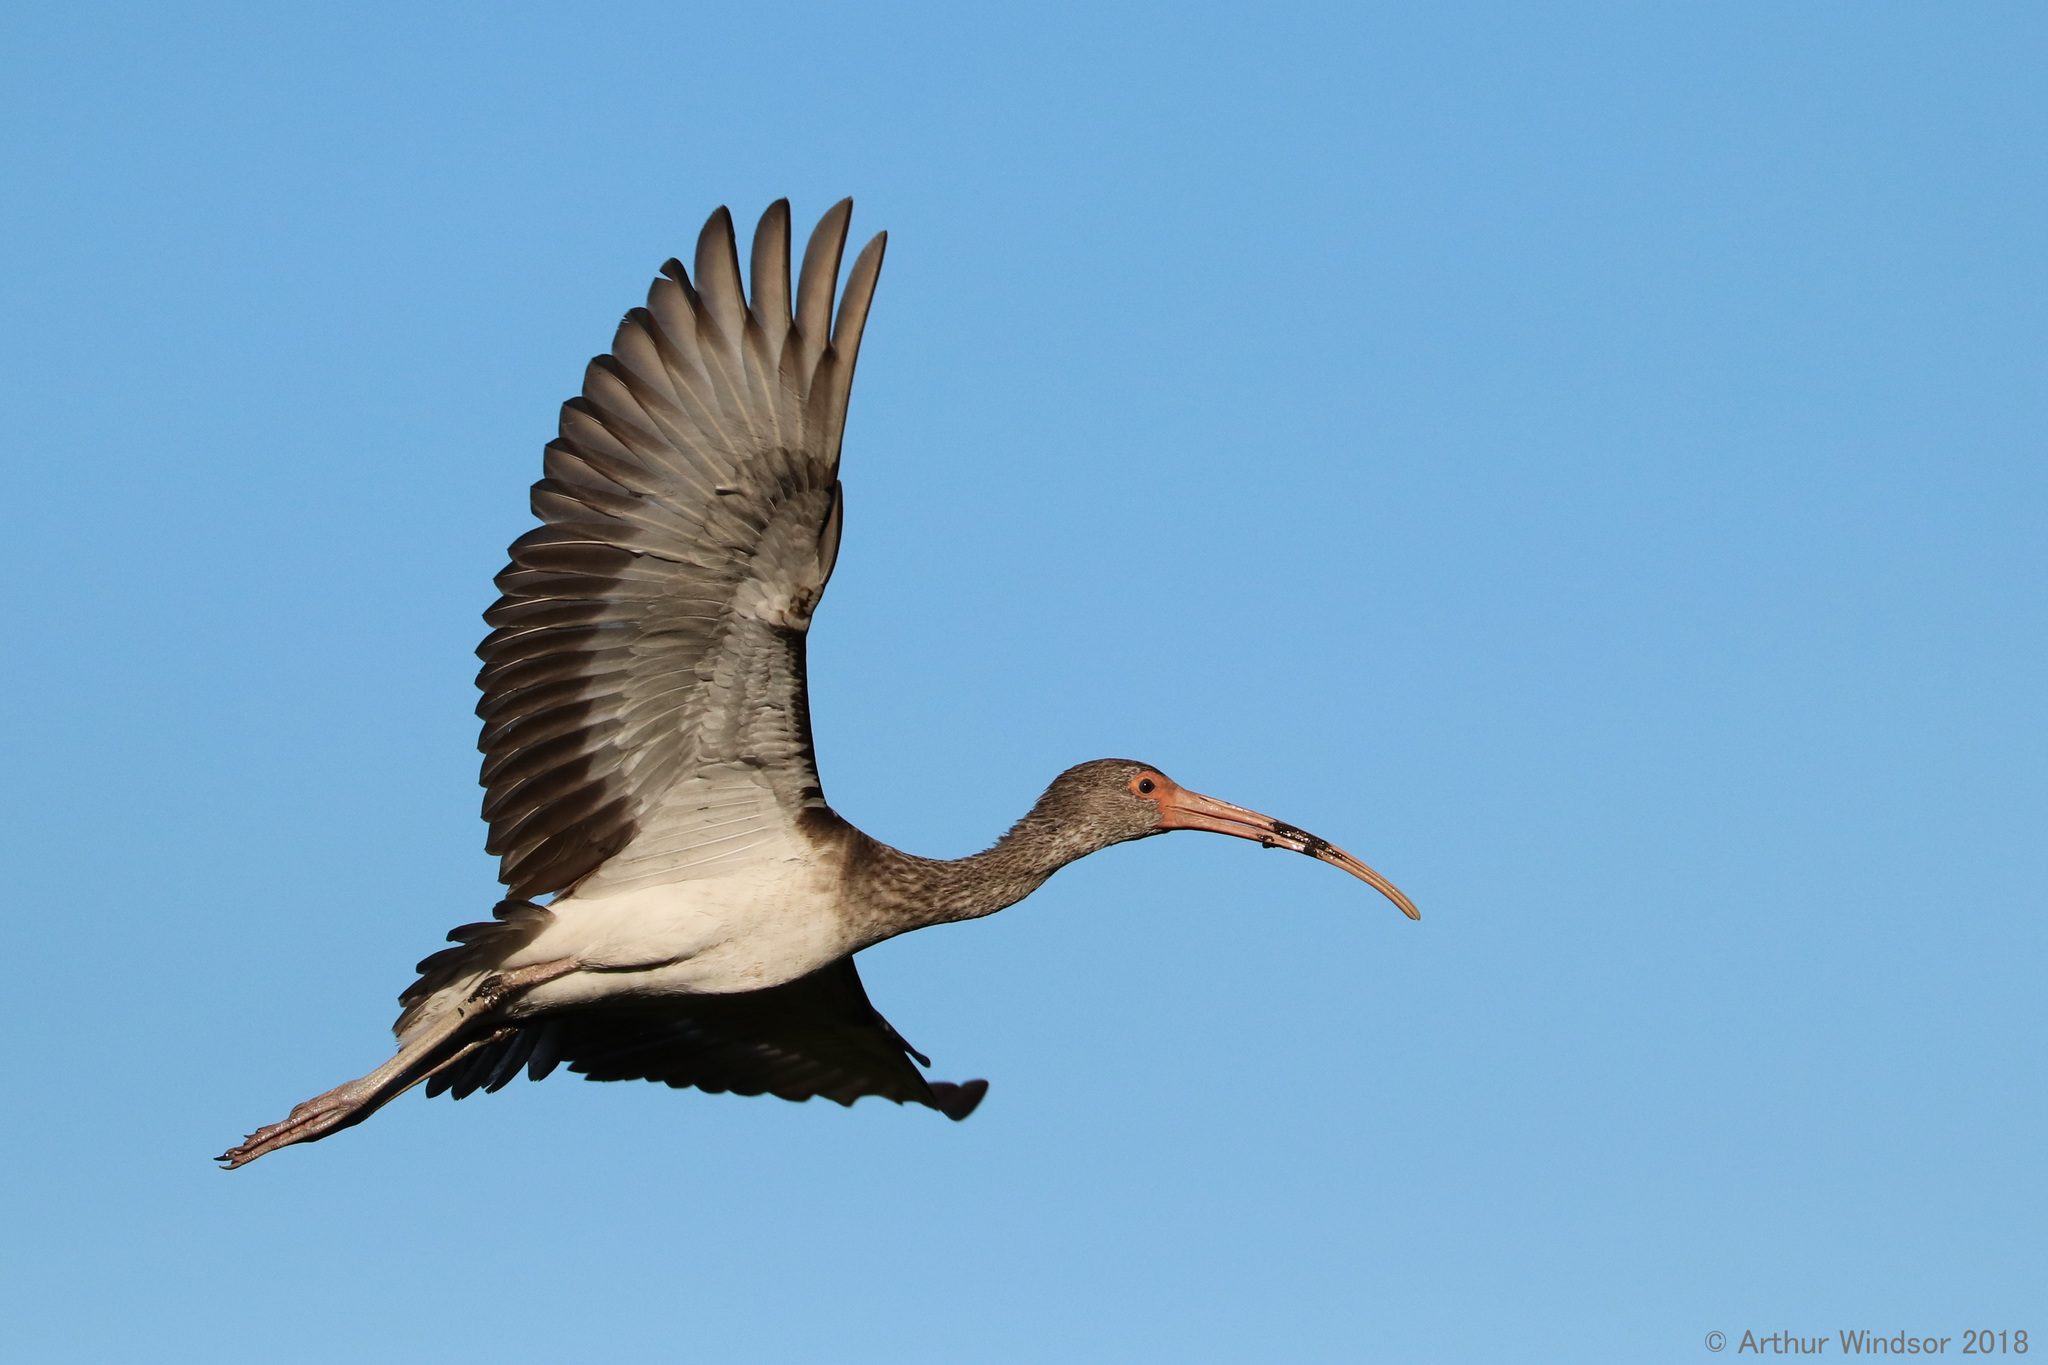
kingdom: Animalia
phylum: Chordata
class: Aves
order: Pelecaniformes
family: Threskiornithidae
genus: Eudocimus
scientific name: Eudocimus albus
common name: White ibis
